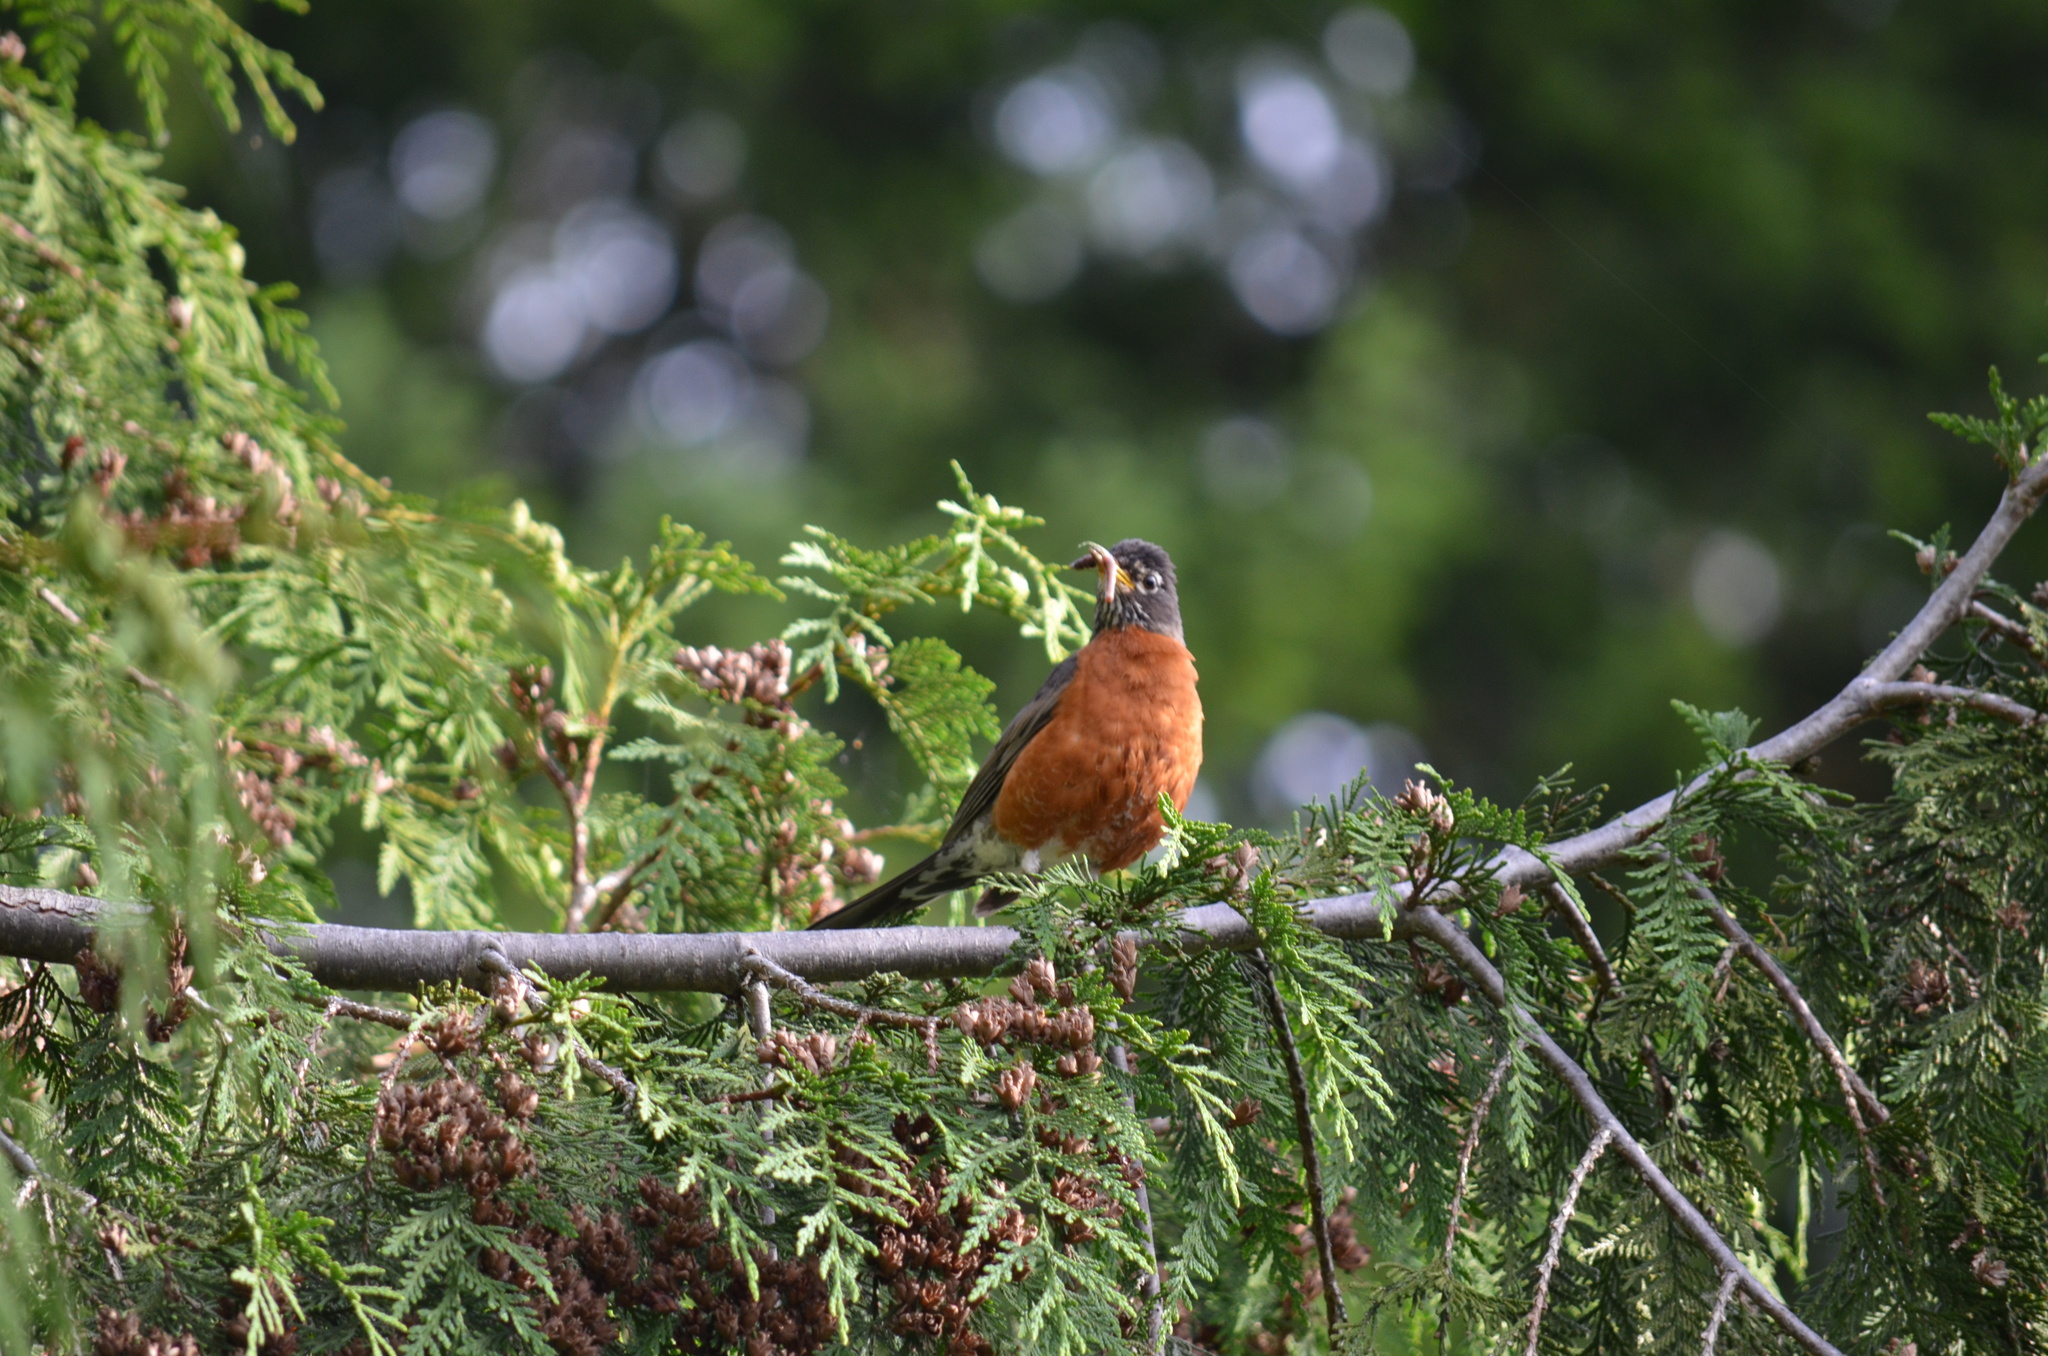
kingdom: Animalia
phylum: Chordata
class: Aves
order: Passeriformes
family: Turdidae
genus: Turdus
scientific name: Turdus migratorius
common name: American robin
